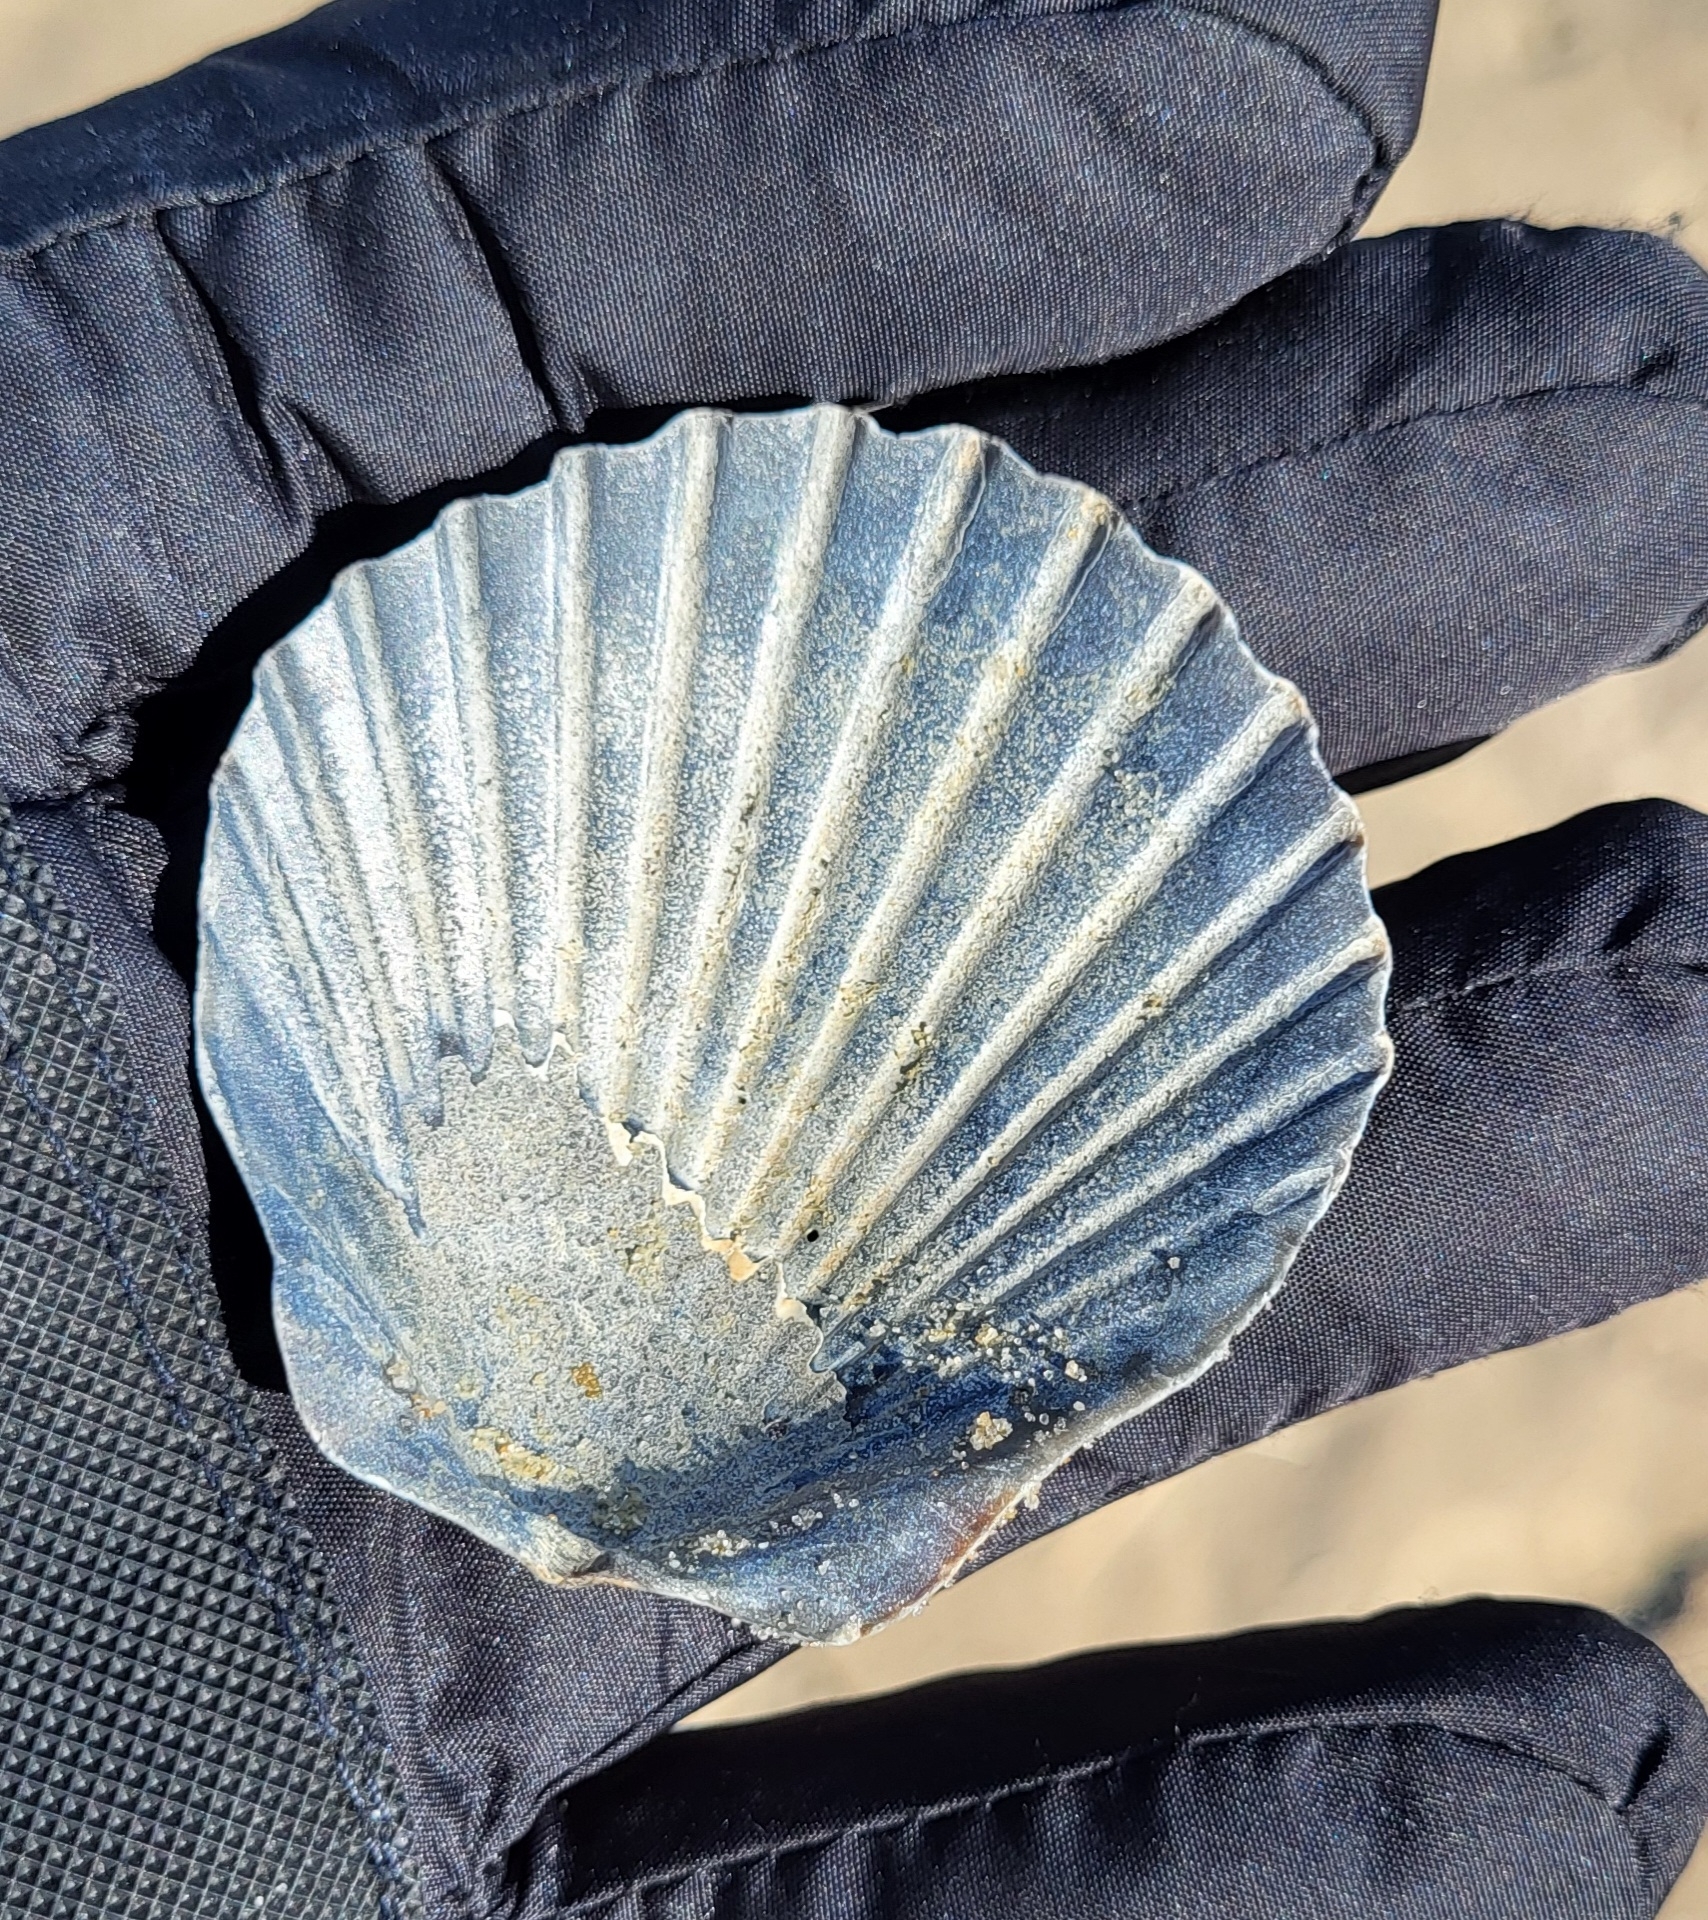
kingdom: Animalia
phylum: Mollusca
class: Bivalvia
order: Pectinida
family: Pectinidae
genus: Argopecten
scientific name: Argopecten irradians
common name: Atlantic bay scallop
